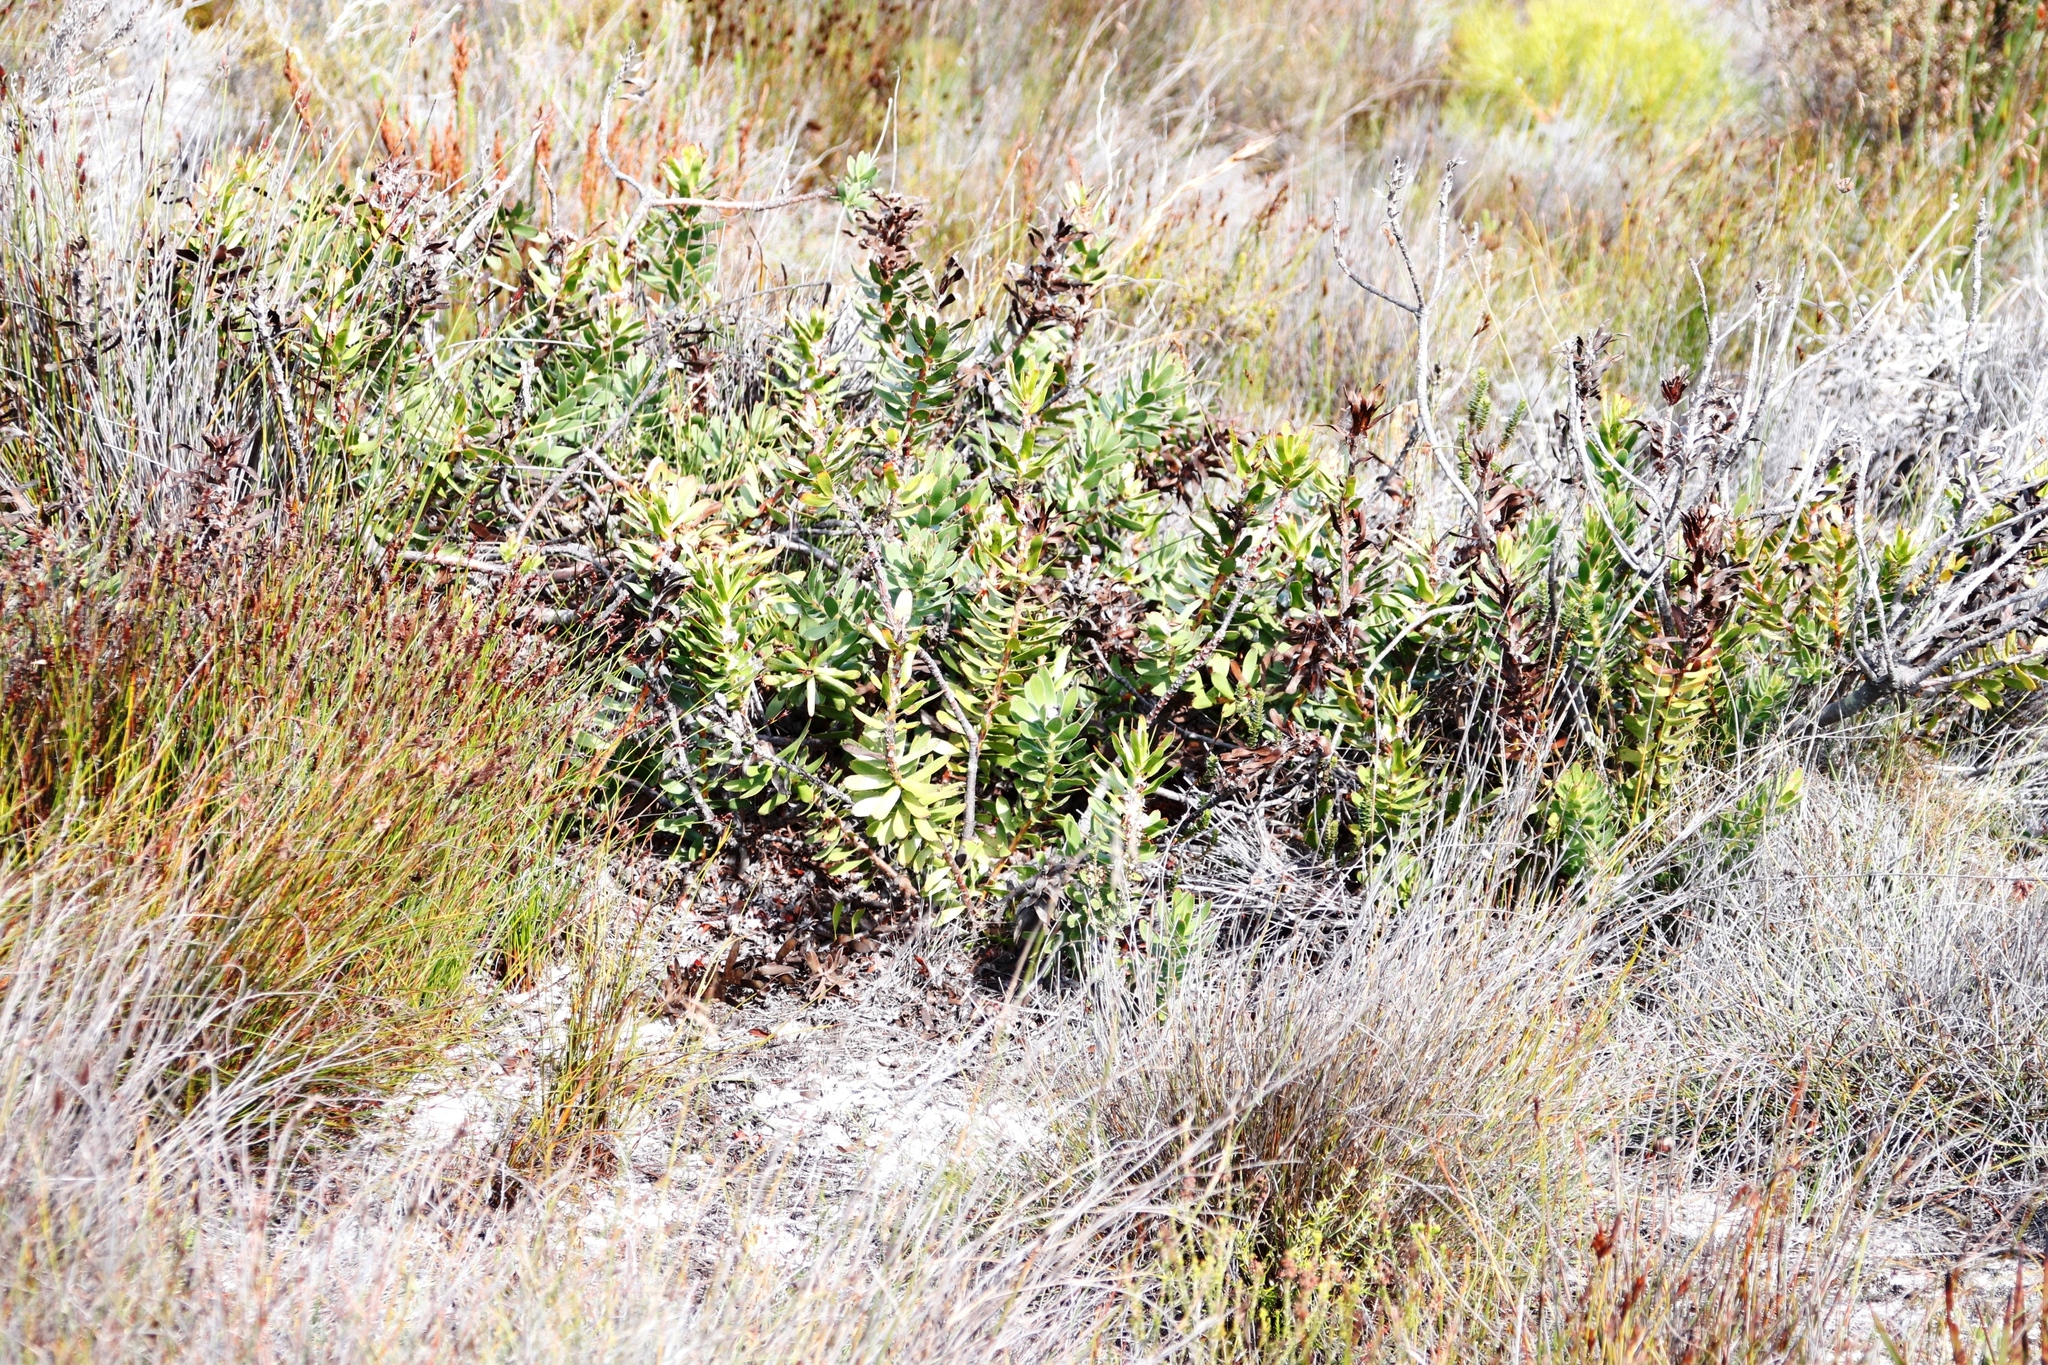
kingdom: Plantae
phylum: Tracheophyta
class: Magnoliopsida
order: Proteales
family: Proteaceae
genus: Mimetes
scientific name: Mimetes cucullatus
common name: Common pagoda
